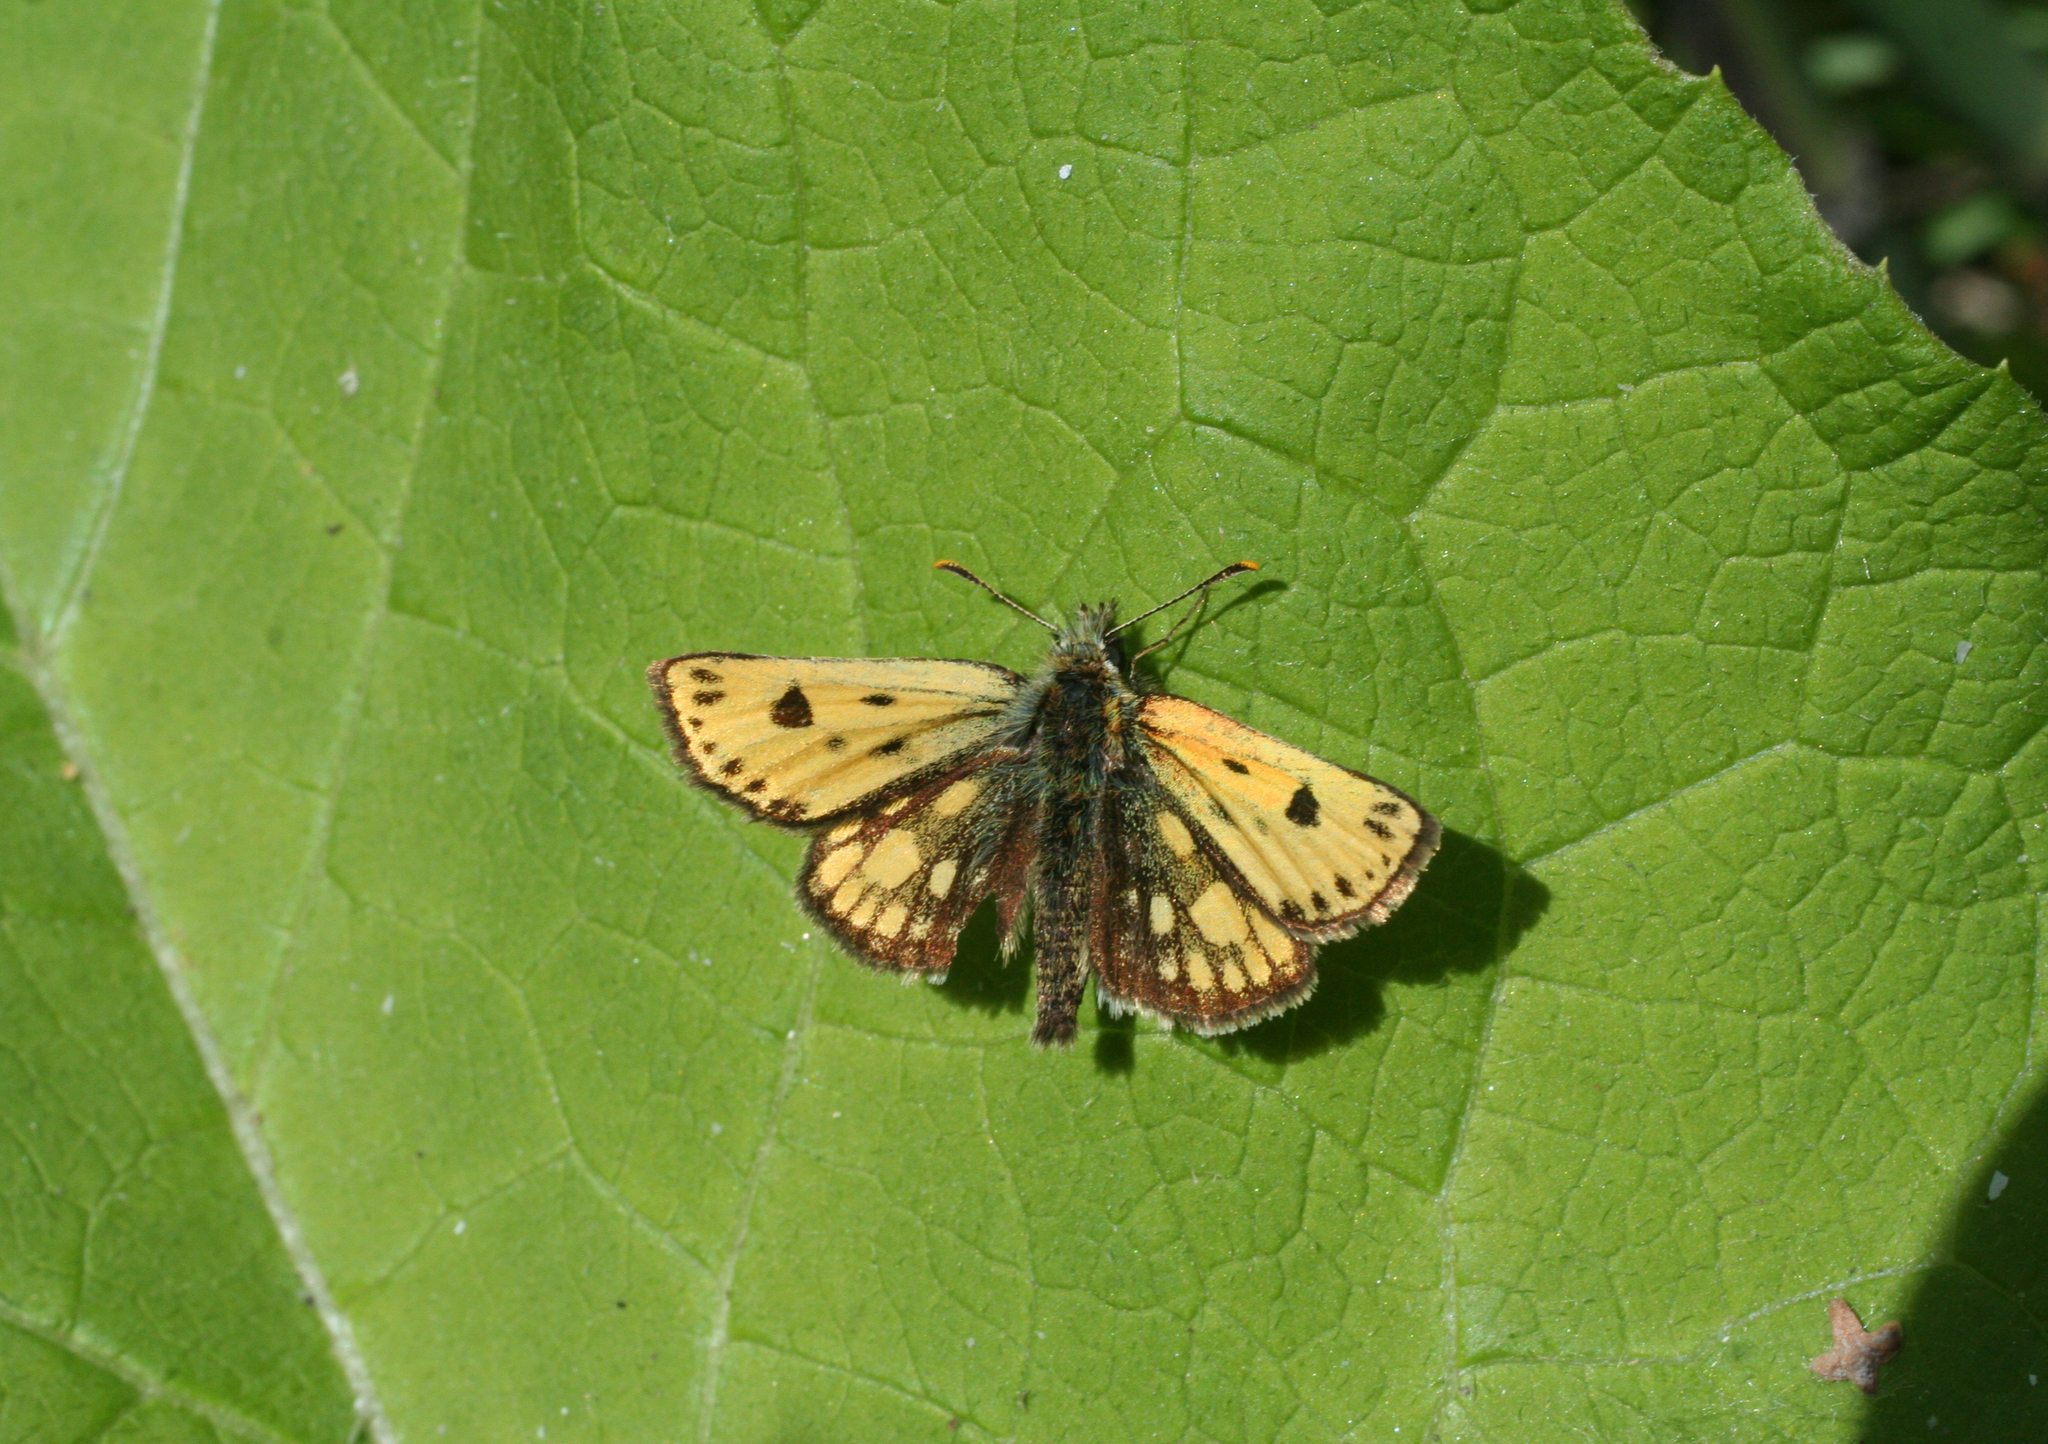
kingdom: Animalia
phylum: Arthropoda
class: Insecta
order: Lepidoptera
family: Hesperiidae
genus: Carterocephalus
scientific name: Carterocephalus silvicola
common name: Northern chequered skipper
